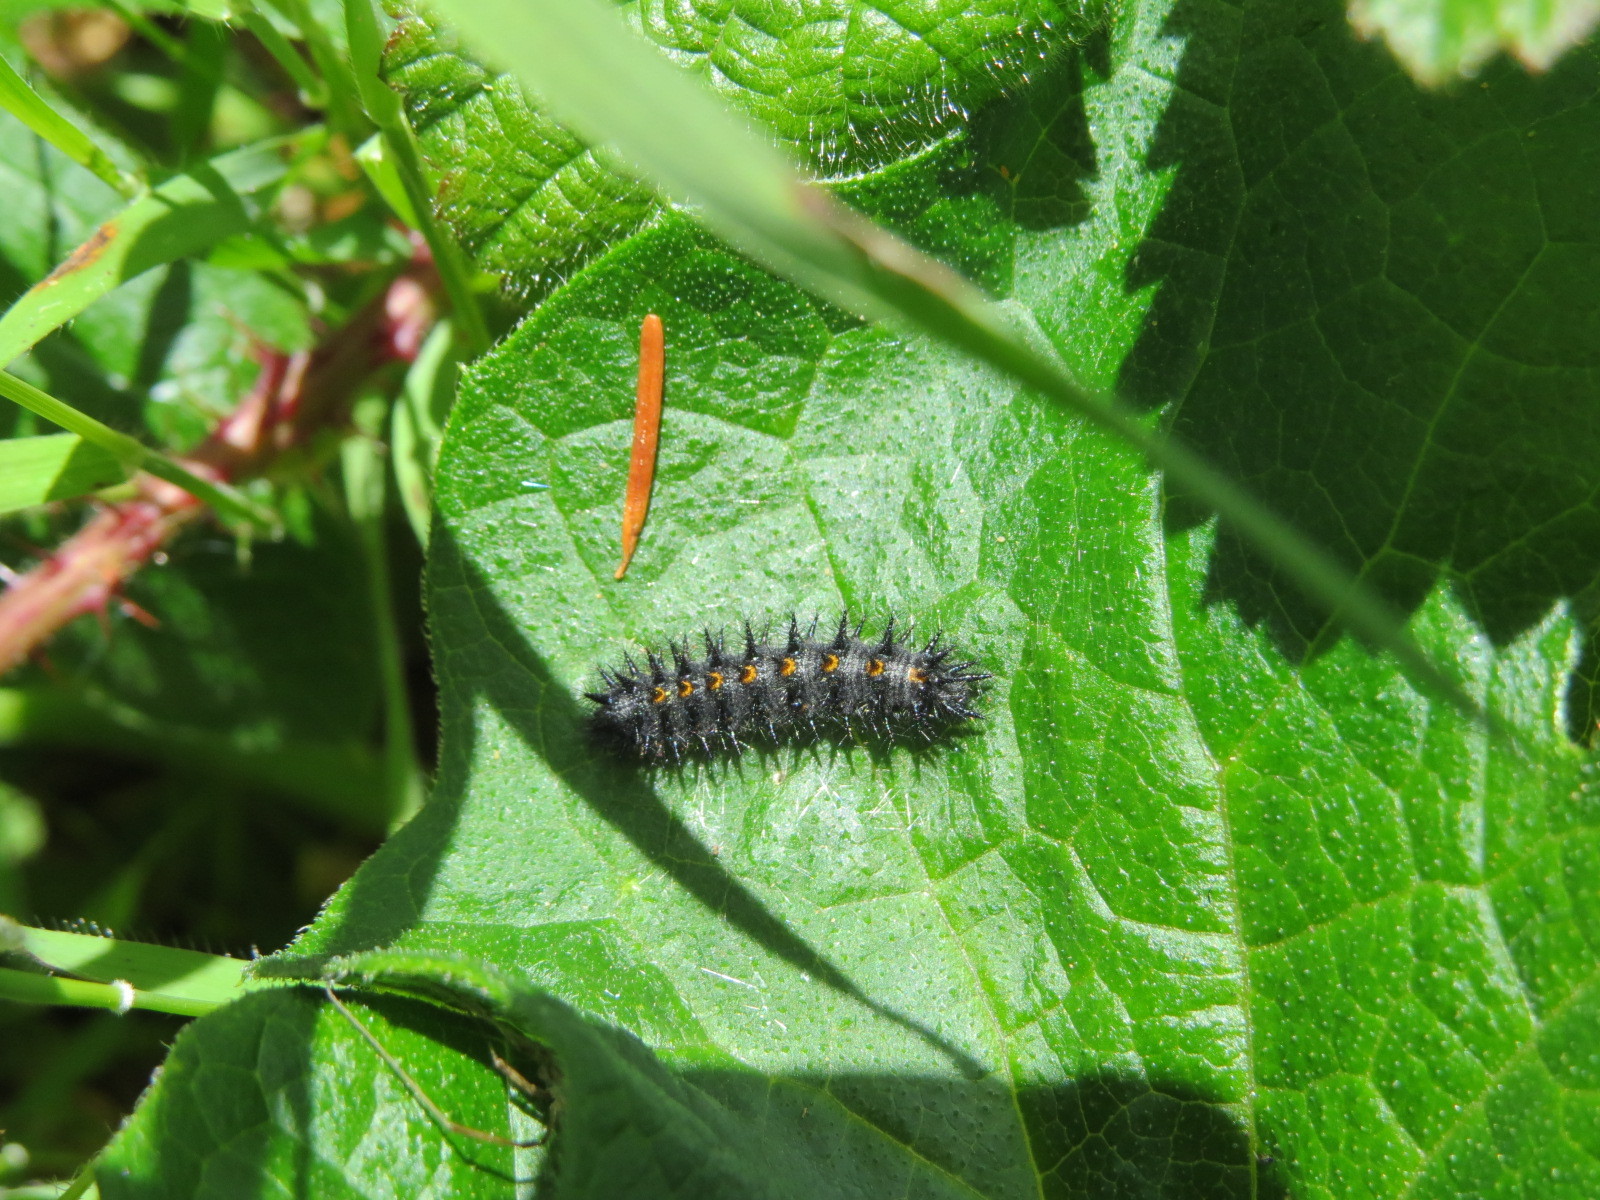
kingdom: Animalia
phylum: Arthropoda
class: Insecta
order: Lepidoptera
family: Nymphalidae
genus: Occidryas
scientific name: Occidryas chalcedona
